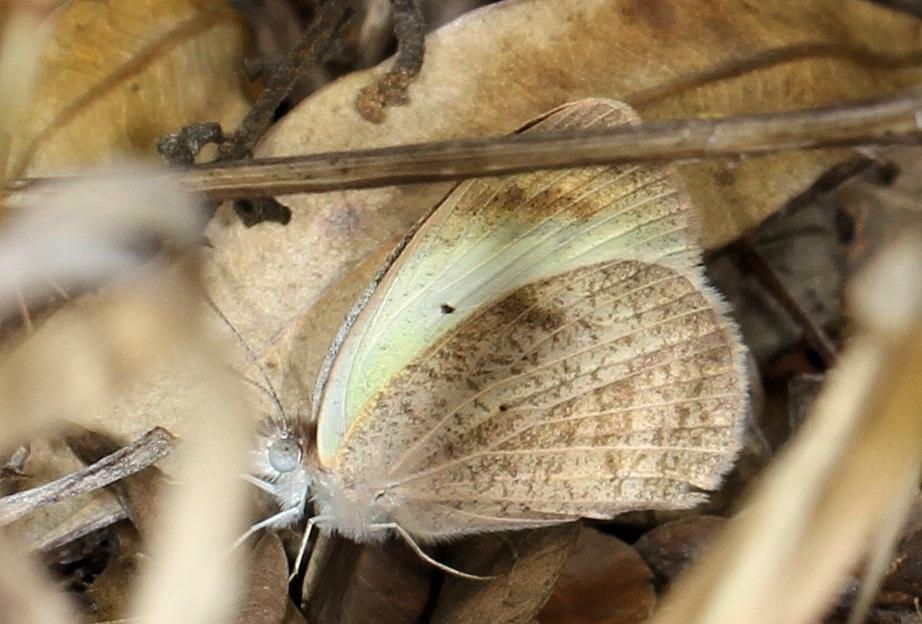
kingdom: Animalia
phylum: Arthropoda
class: Insecta
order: Lepidoptera
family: Pieridae
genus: Colotis
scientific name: Colotis pallene
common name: Bushveld orange tip
